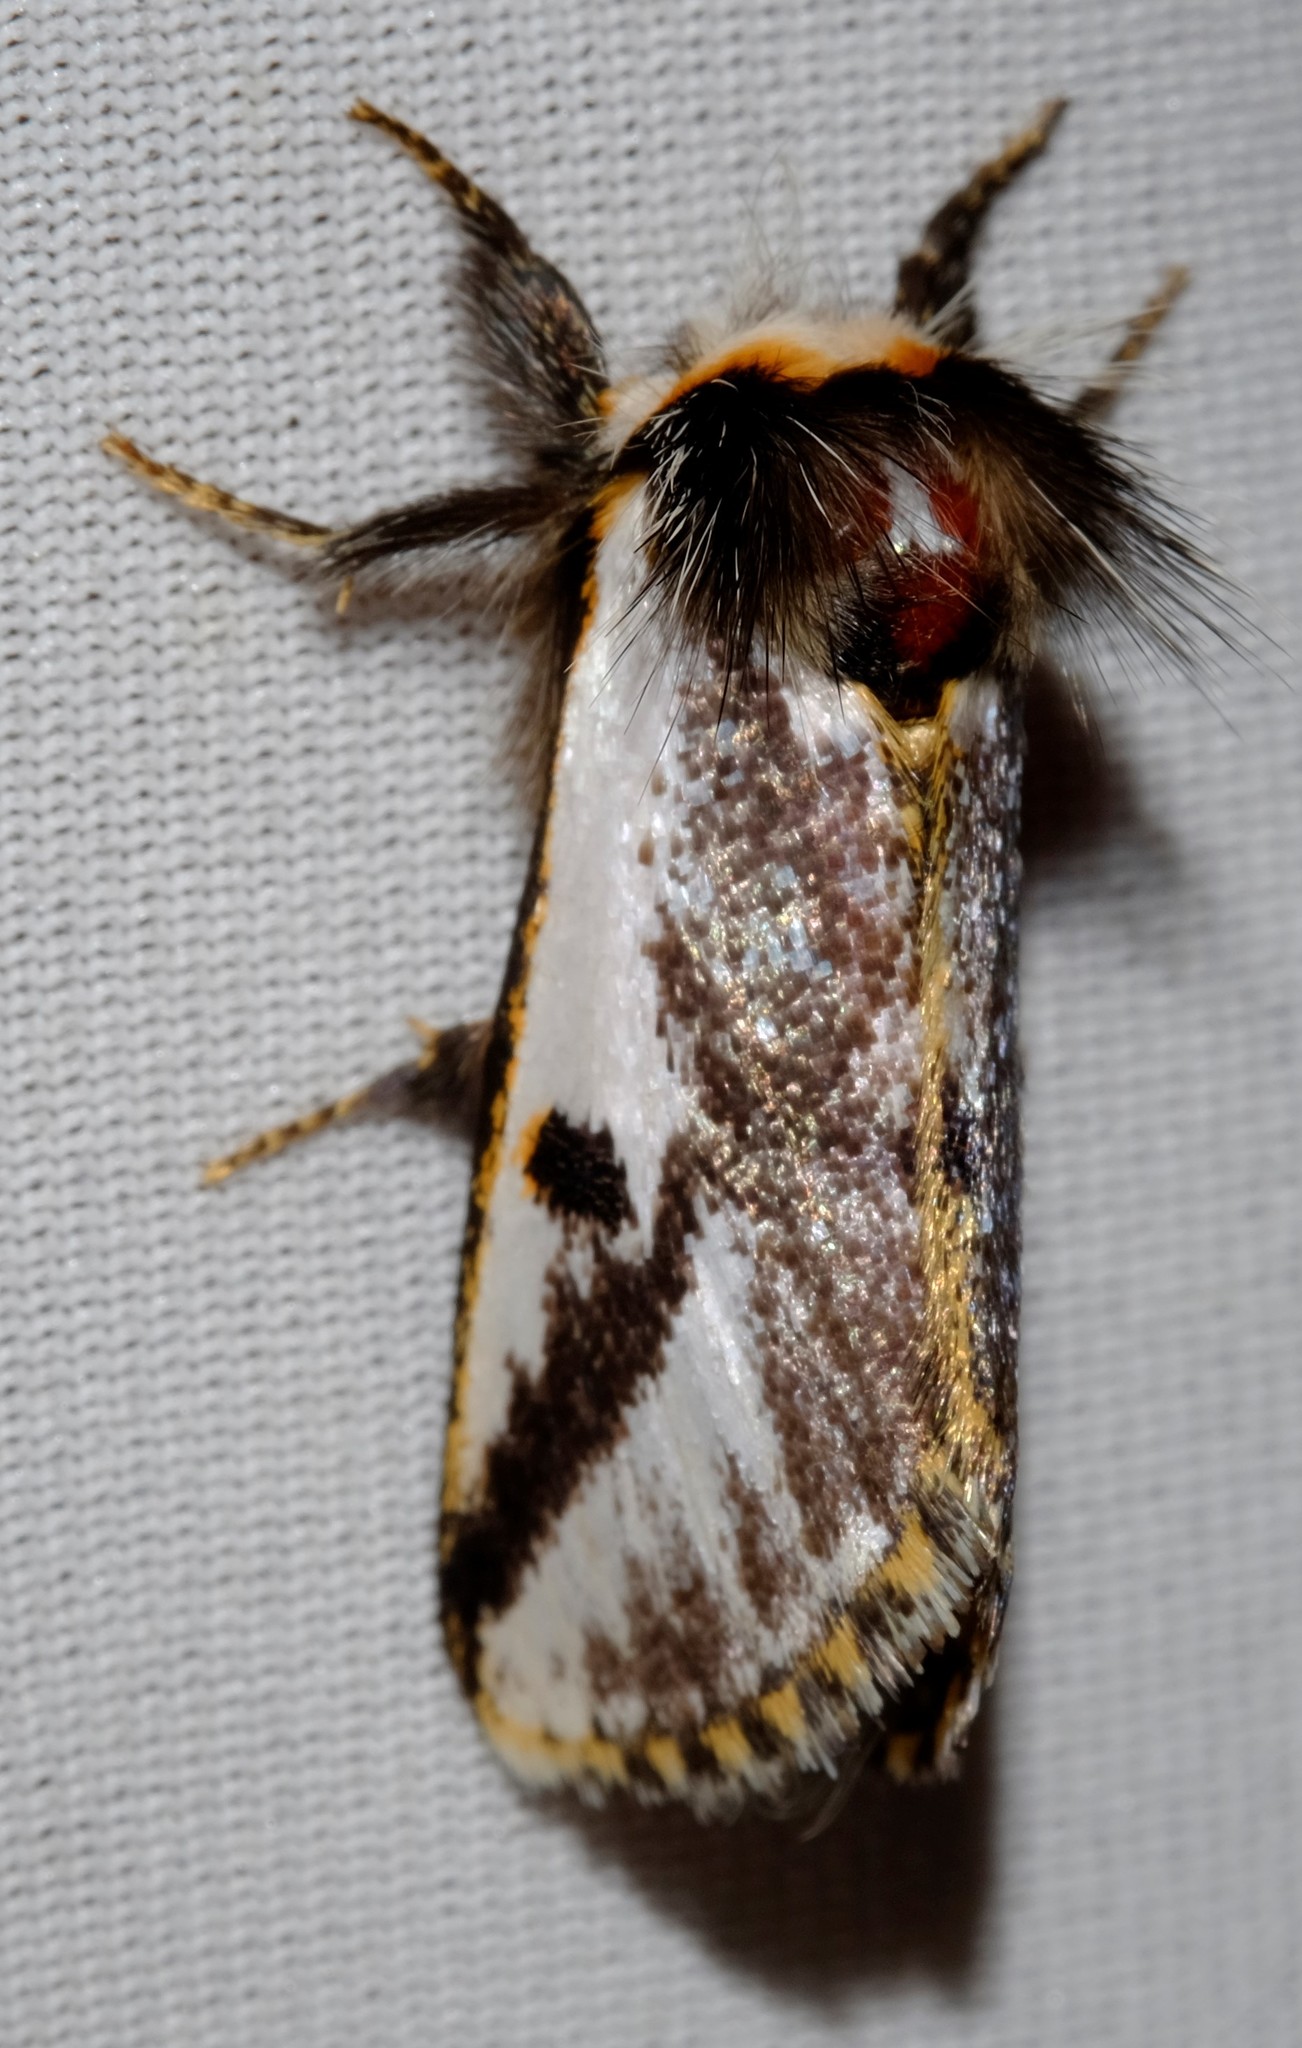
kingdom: Animalia
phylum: Arthropoda
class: Insecta
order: Lepidoptera
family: Notodontidae
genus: Epicoma
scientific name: Epicoma melanospila
